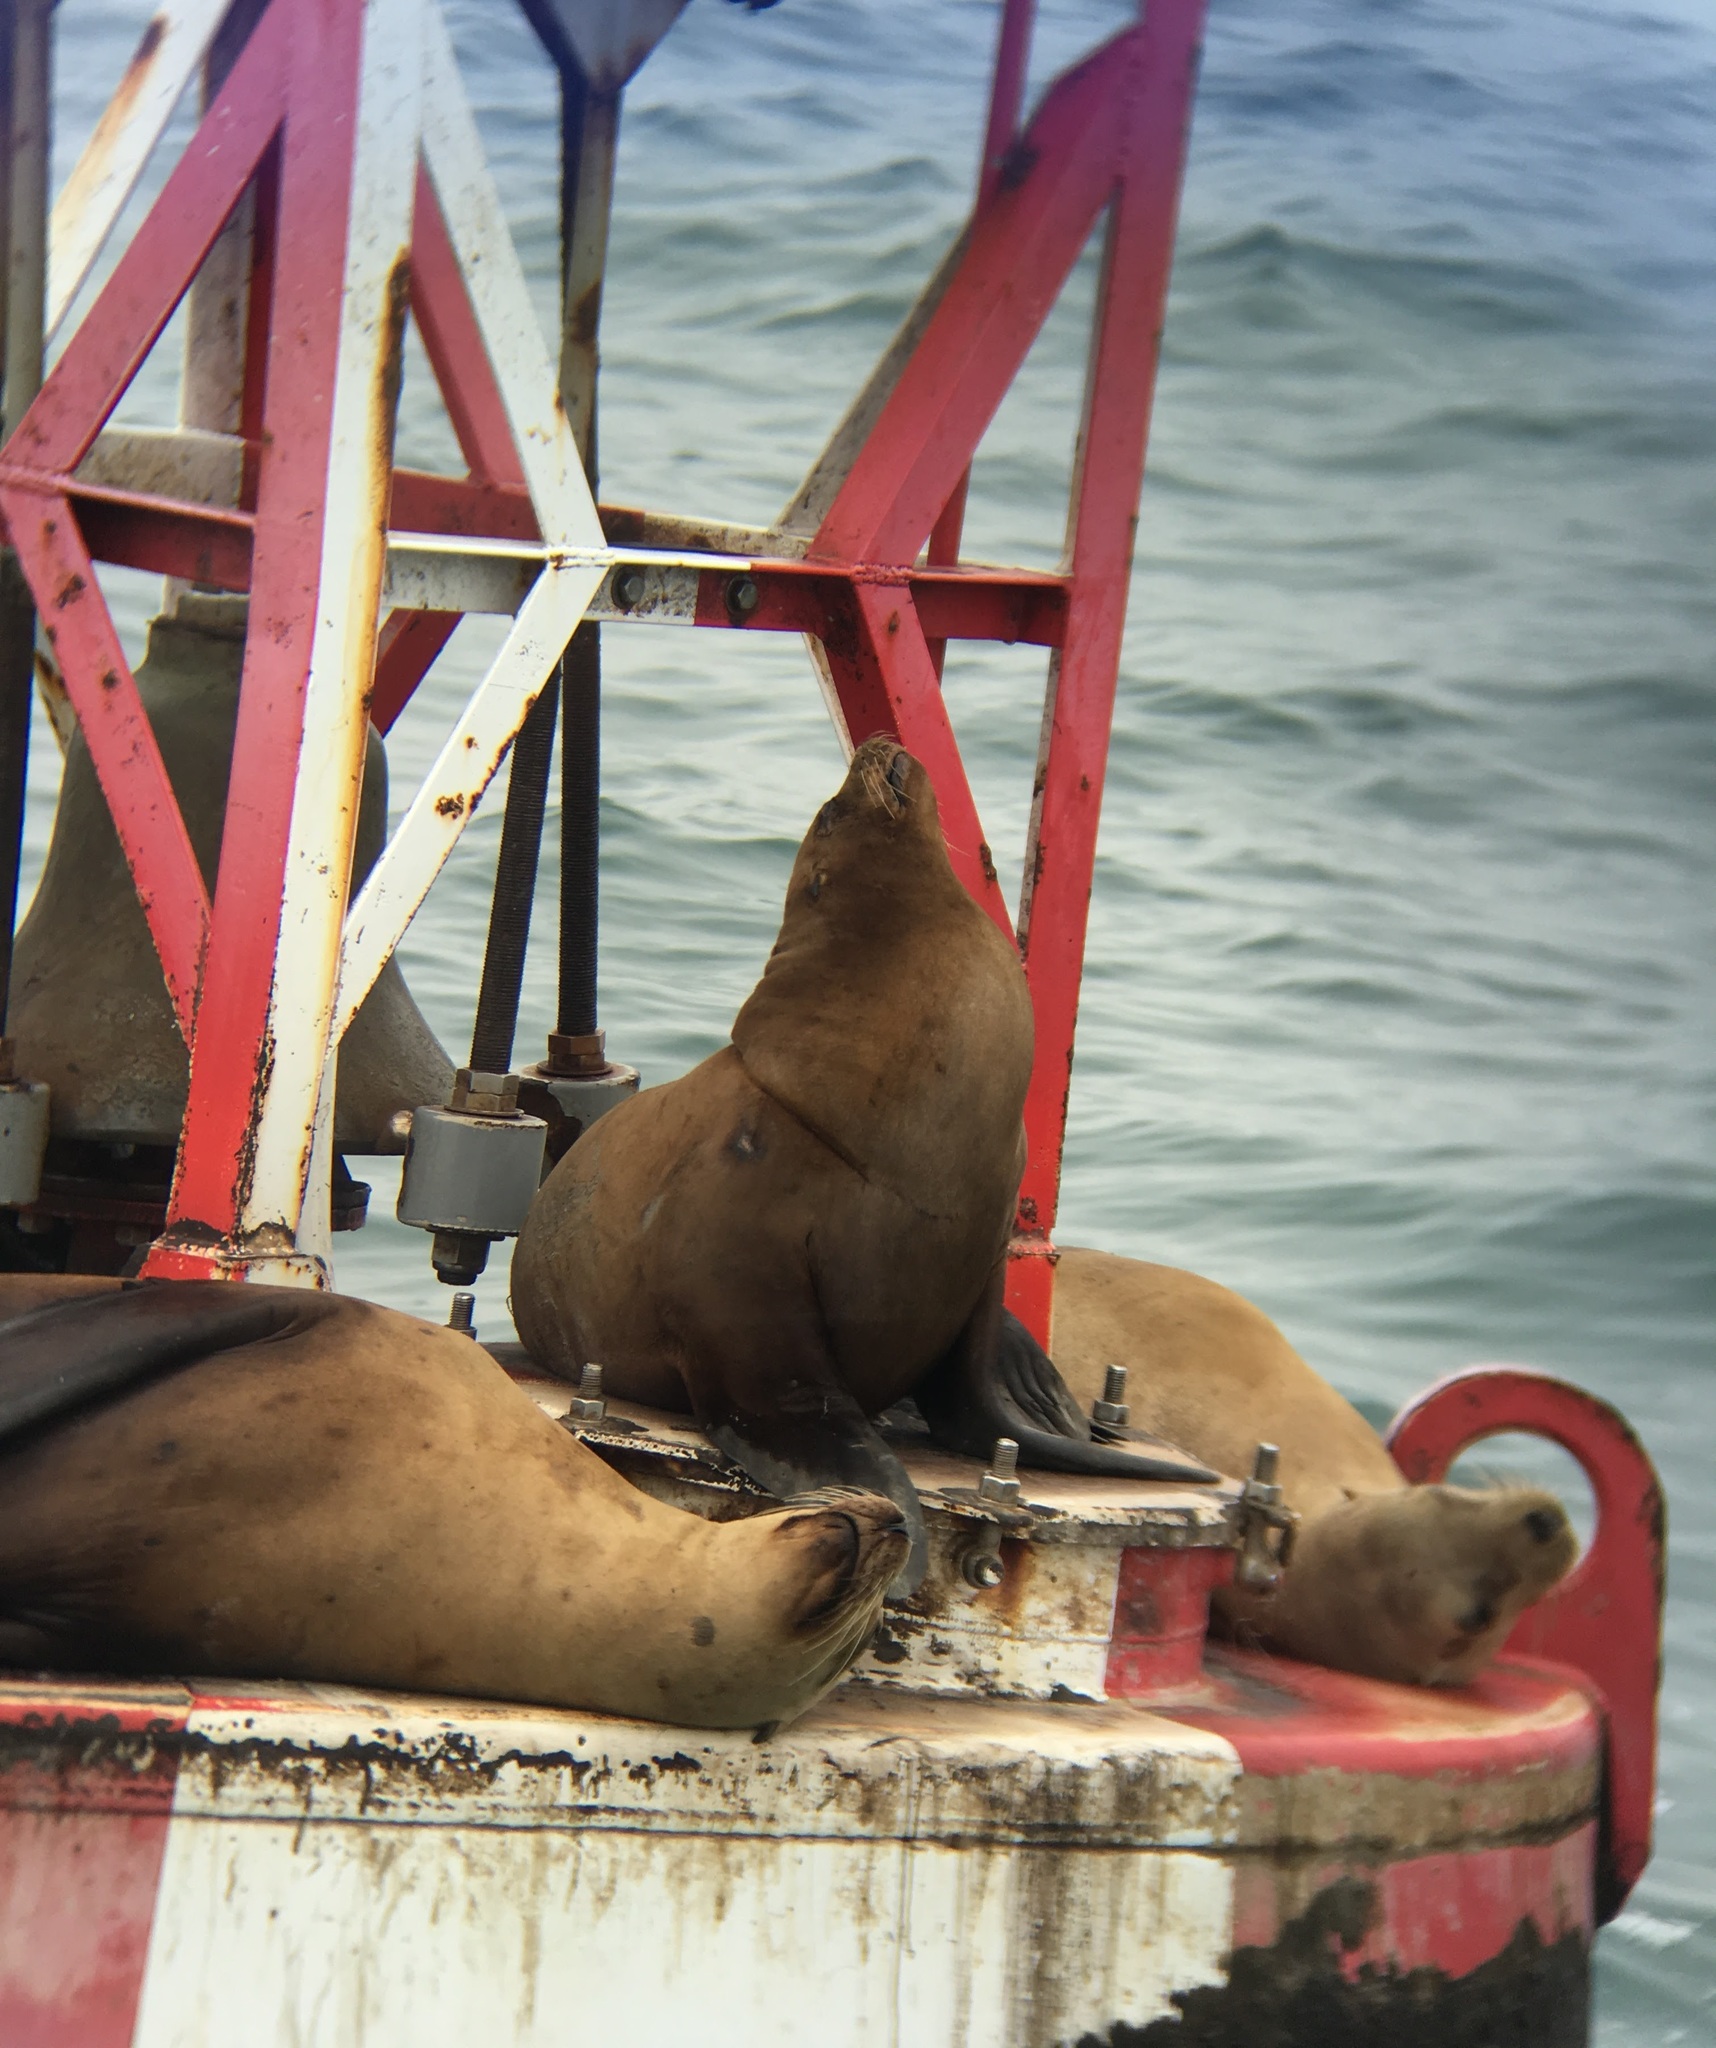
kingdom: Animalia
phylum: Chordata
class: Mammalia
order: Carnivora
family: Otariidae
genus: Zalophus
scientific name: Zalophus californianus
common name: California sea lion
